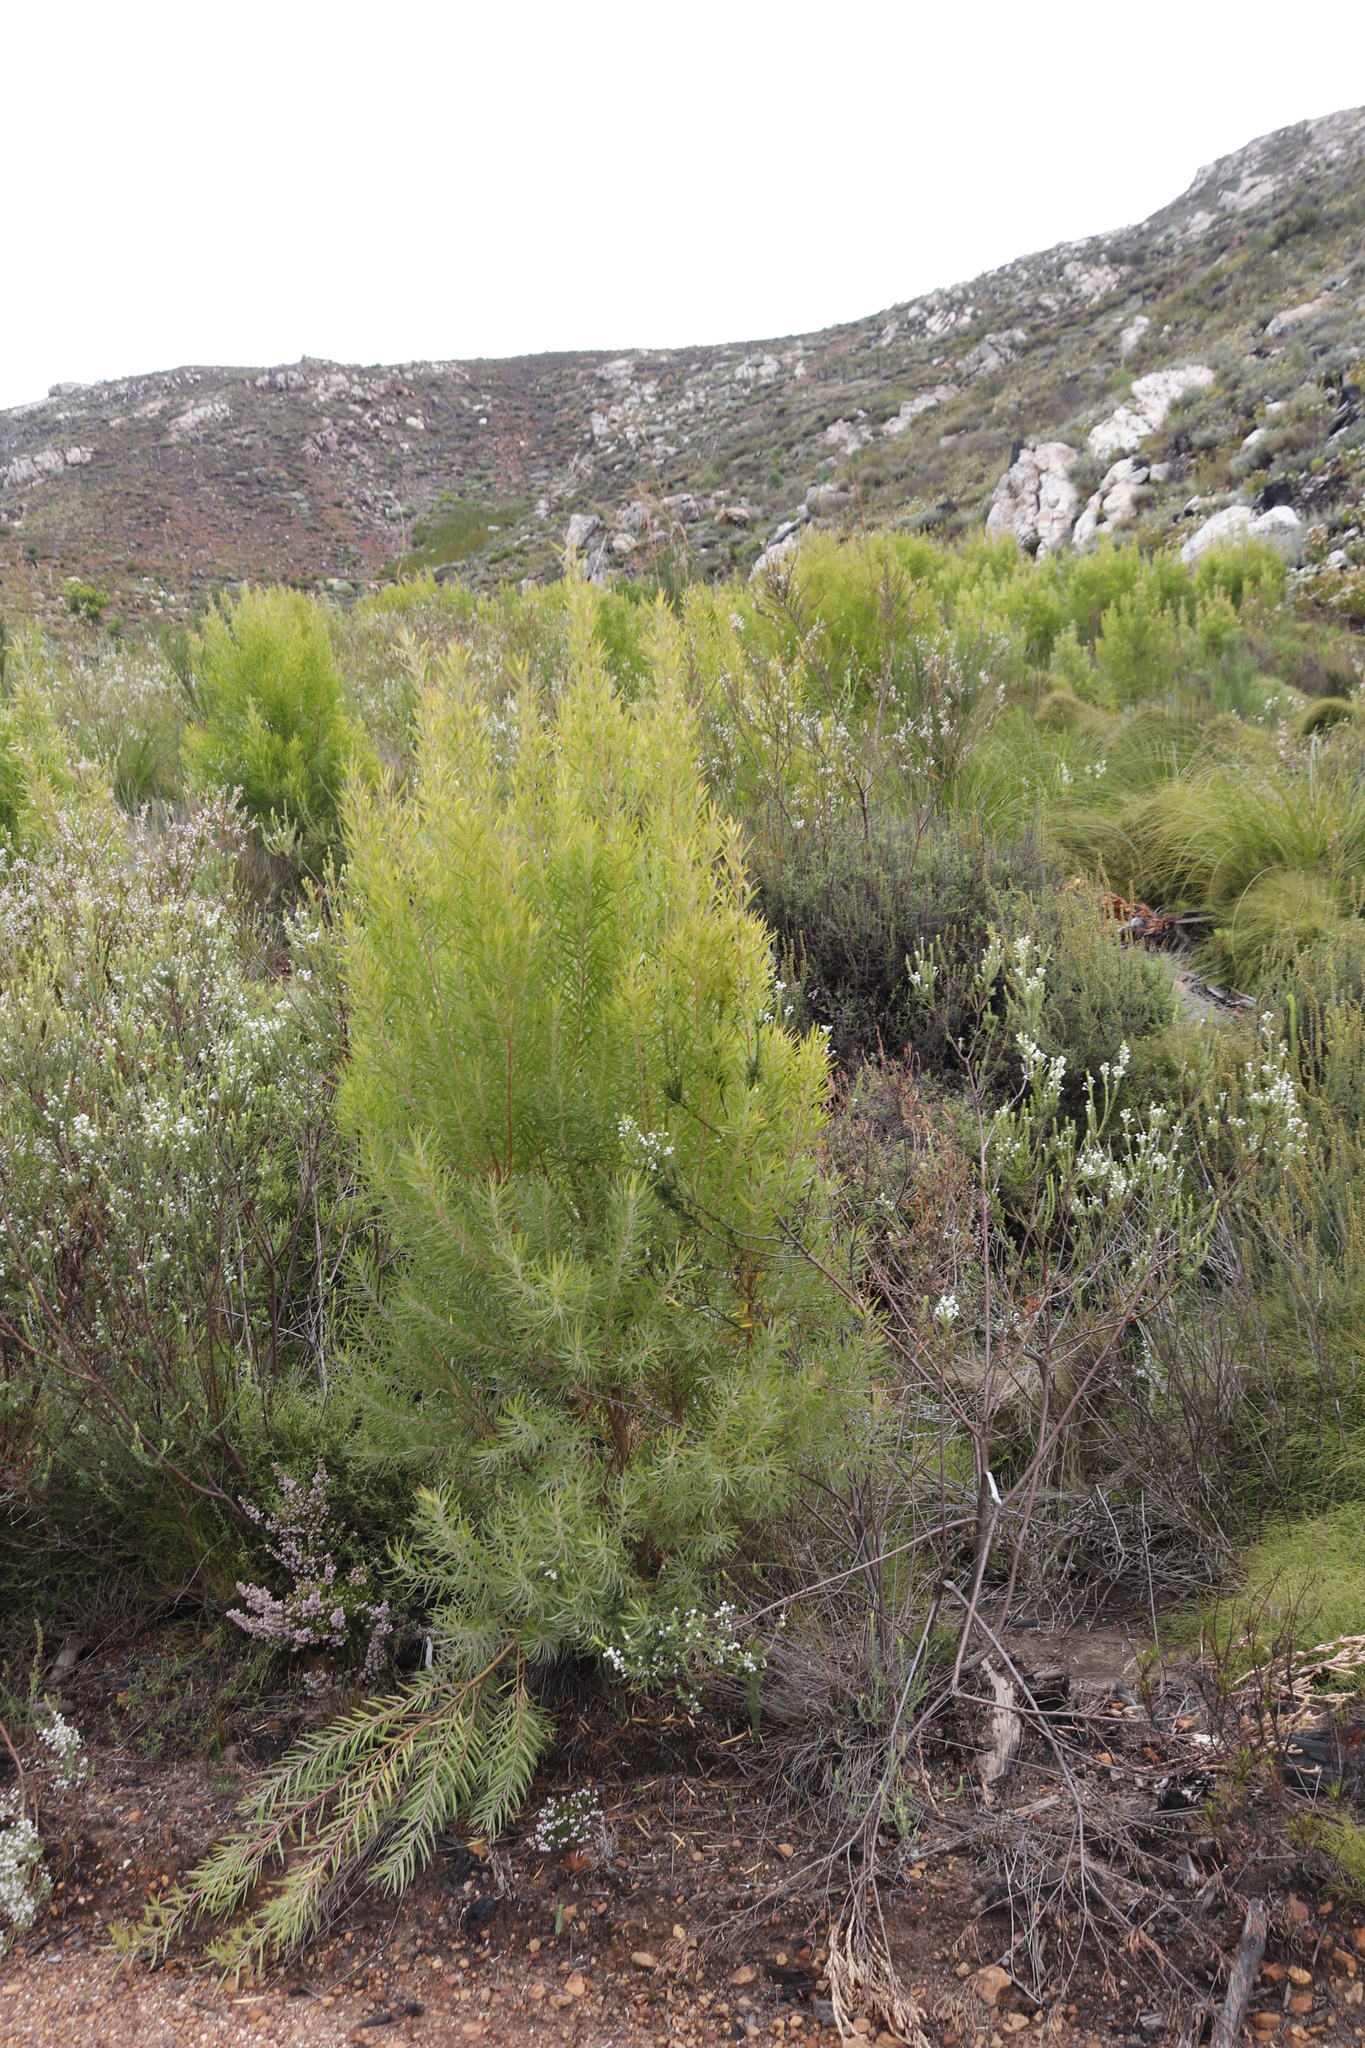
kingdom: Plantae
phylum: Tracheophyta
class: Magnoliopsida
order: Proteales
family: Proteaceae
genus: Leucadendron
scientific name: Leucadendron salicifolium
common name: Common stream conebush
